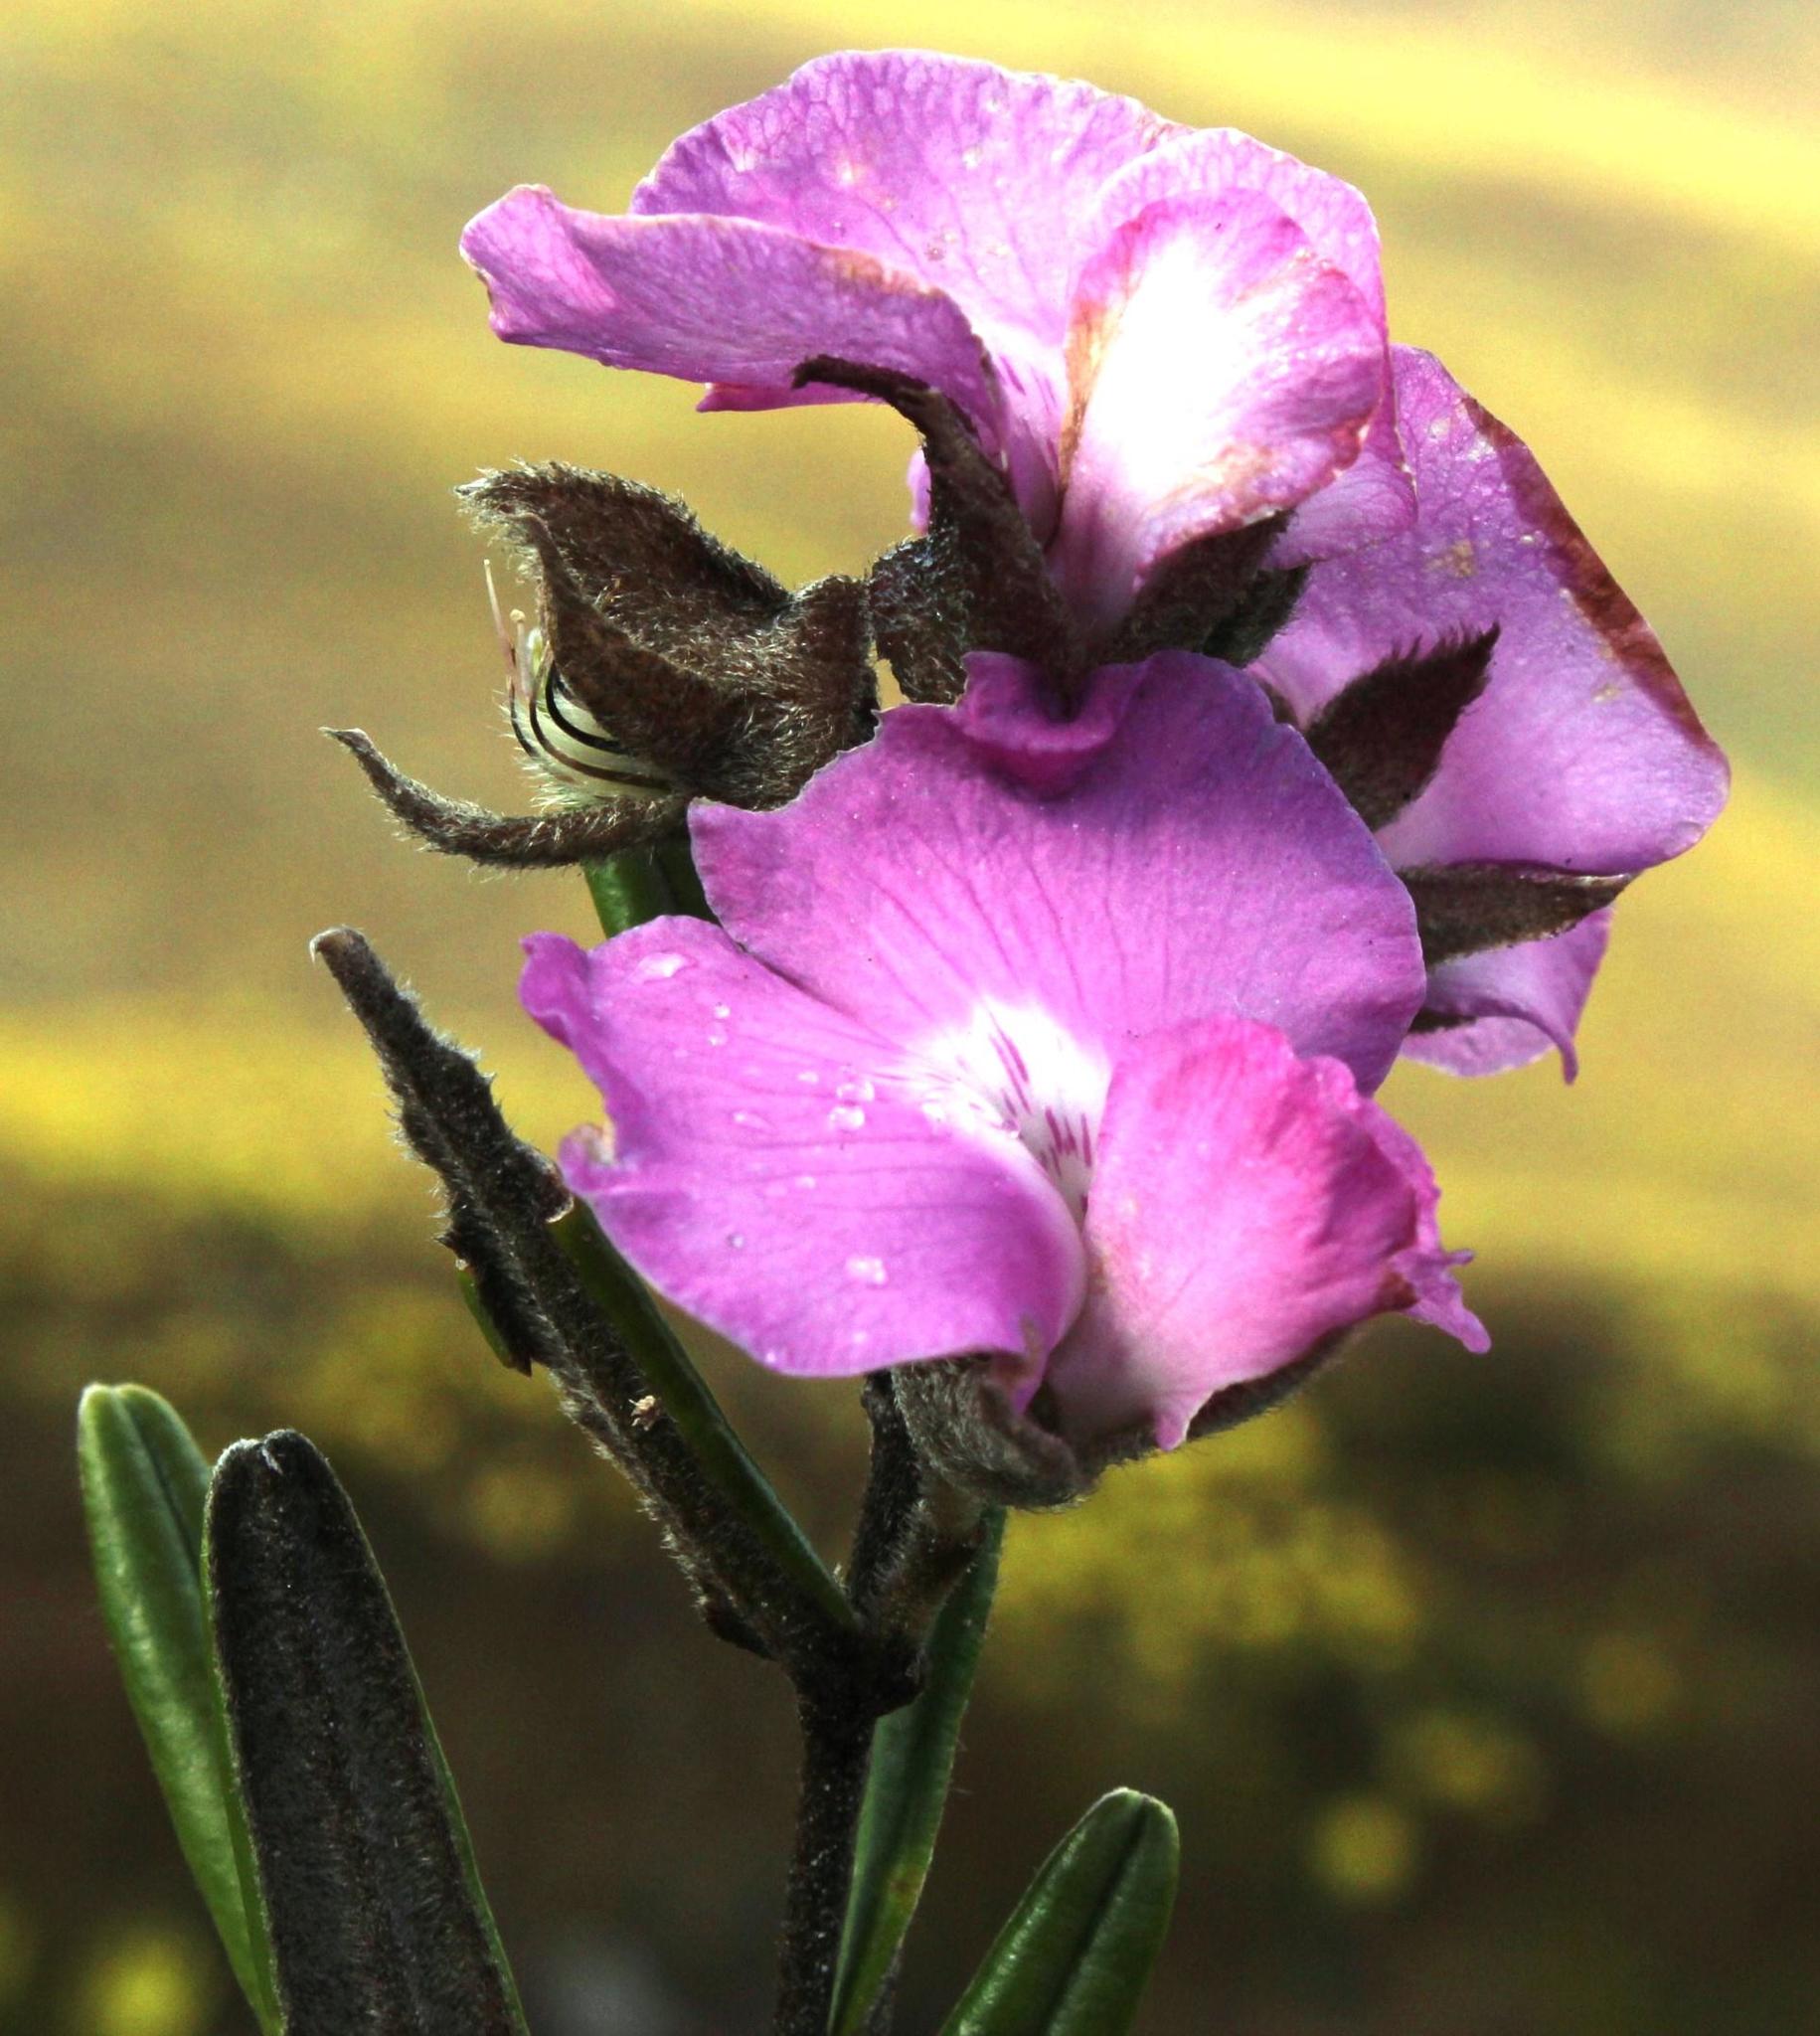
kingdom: Plantae
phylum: Tracheophyta
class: Magnoliopsida
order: Fabales
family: Fabaceae
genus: Podalyria
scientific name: Podalyria oleifolia
